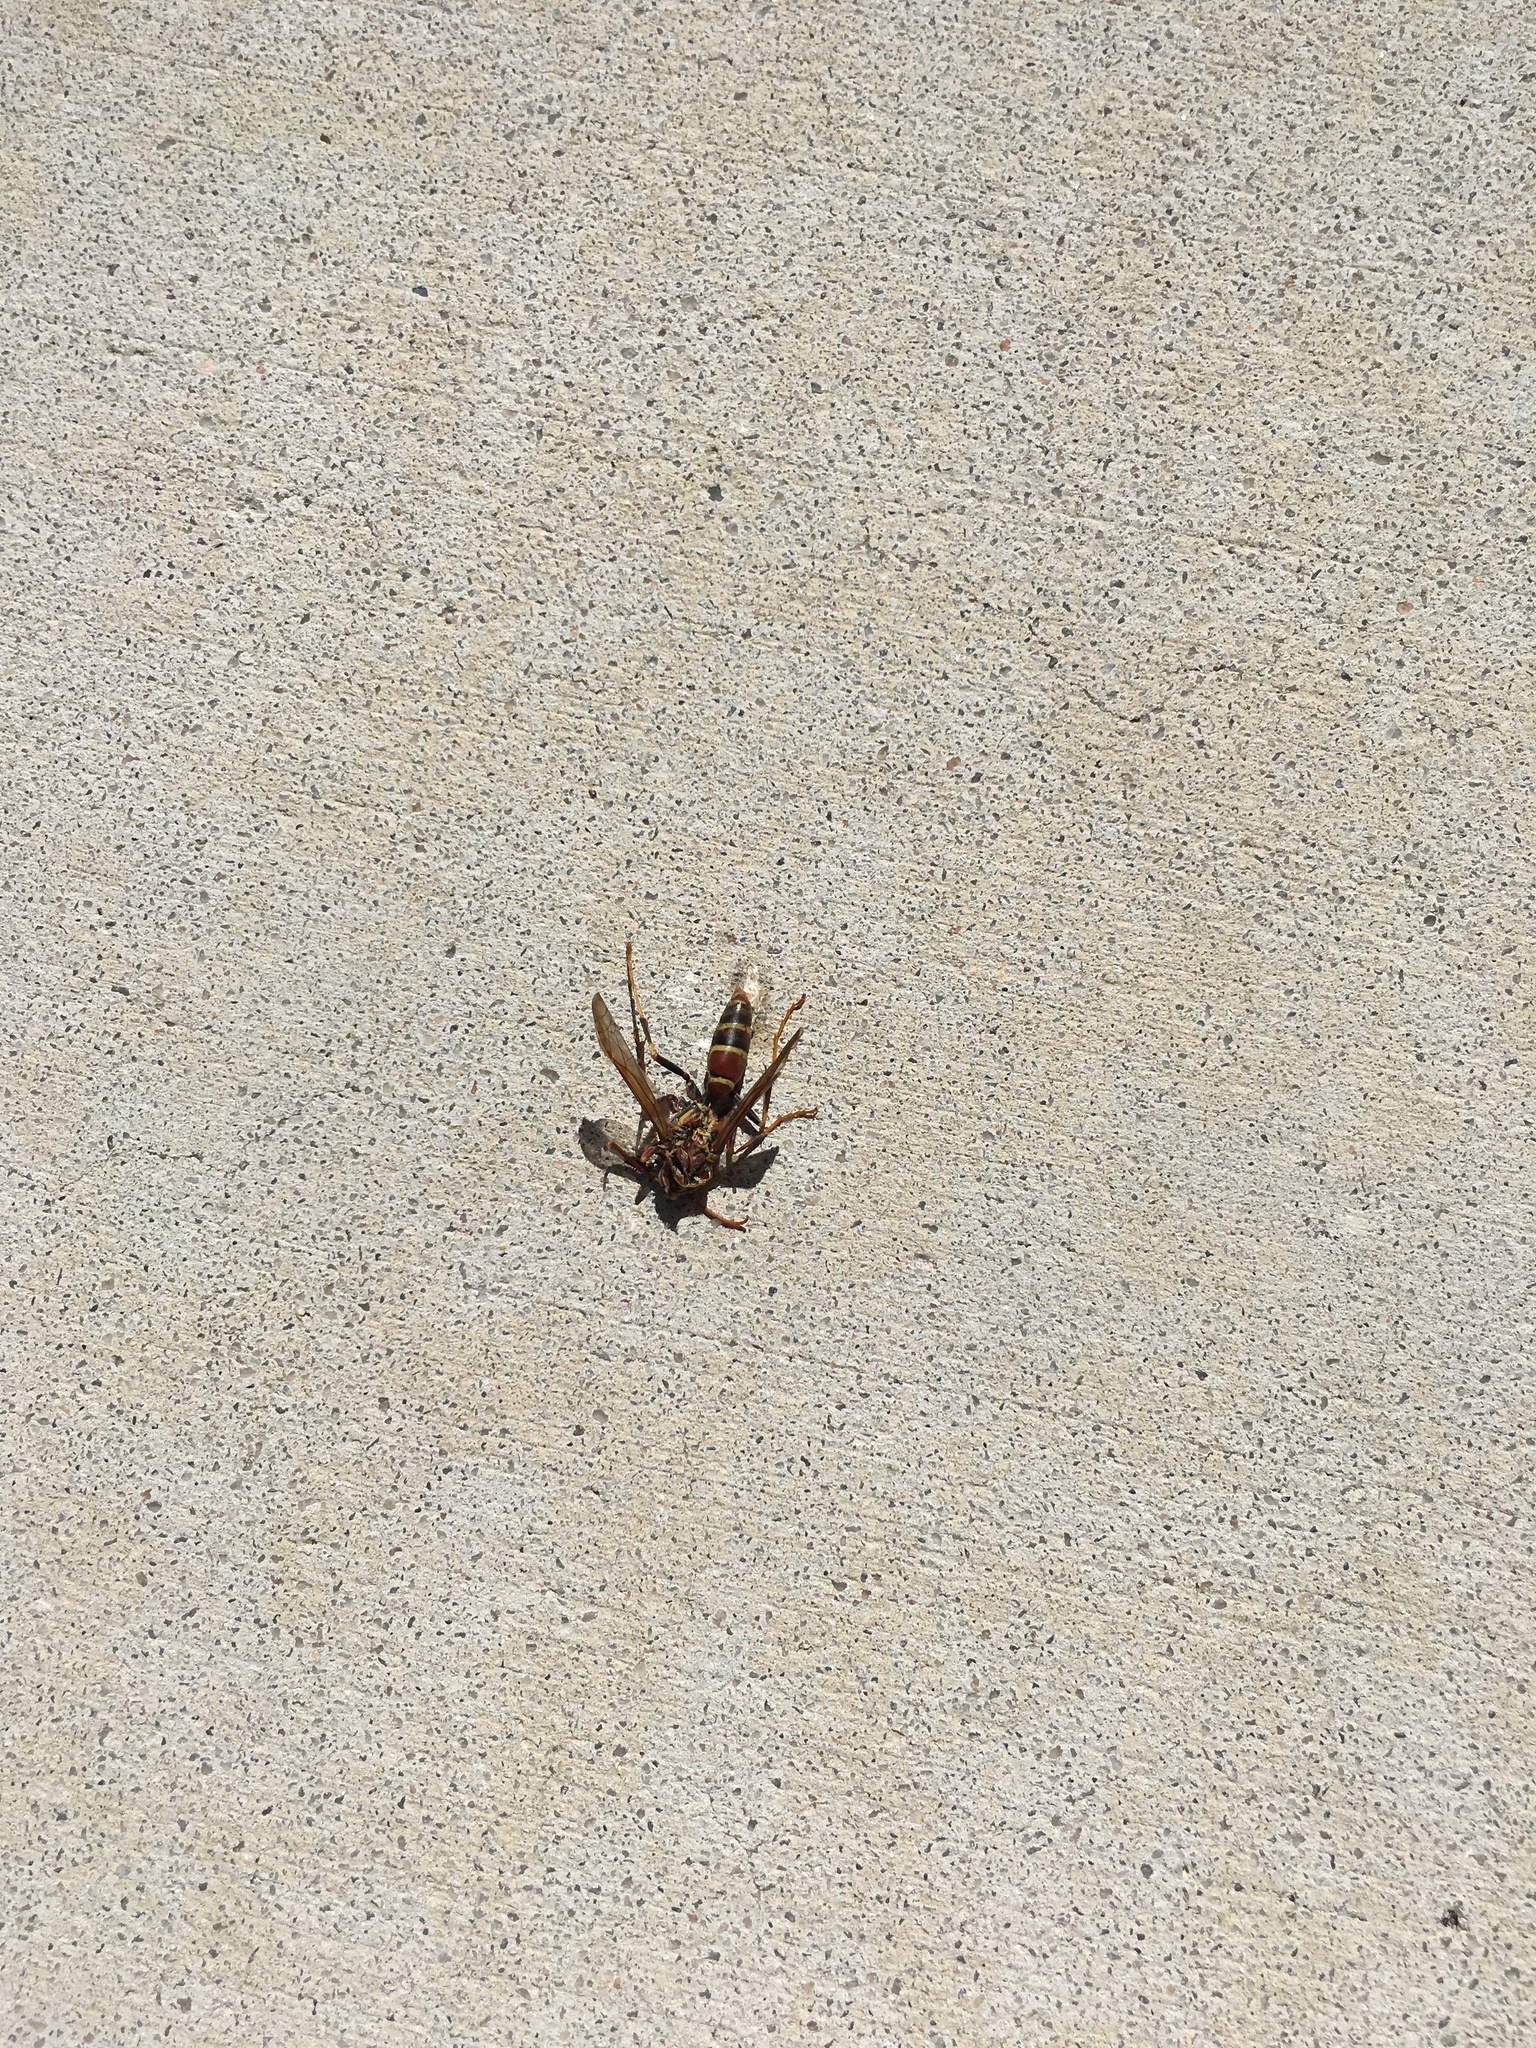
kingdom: Animalia
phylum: Arthropoda
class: Insecta
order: Hymenoptera
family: Eumenidae
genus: Polistes
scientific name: Polistes dorsalis
